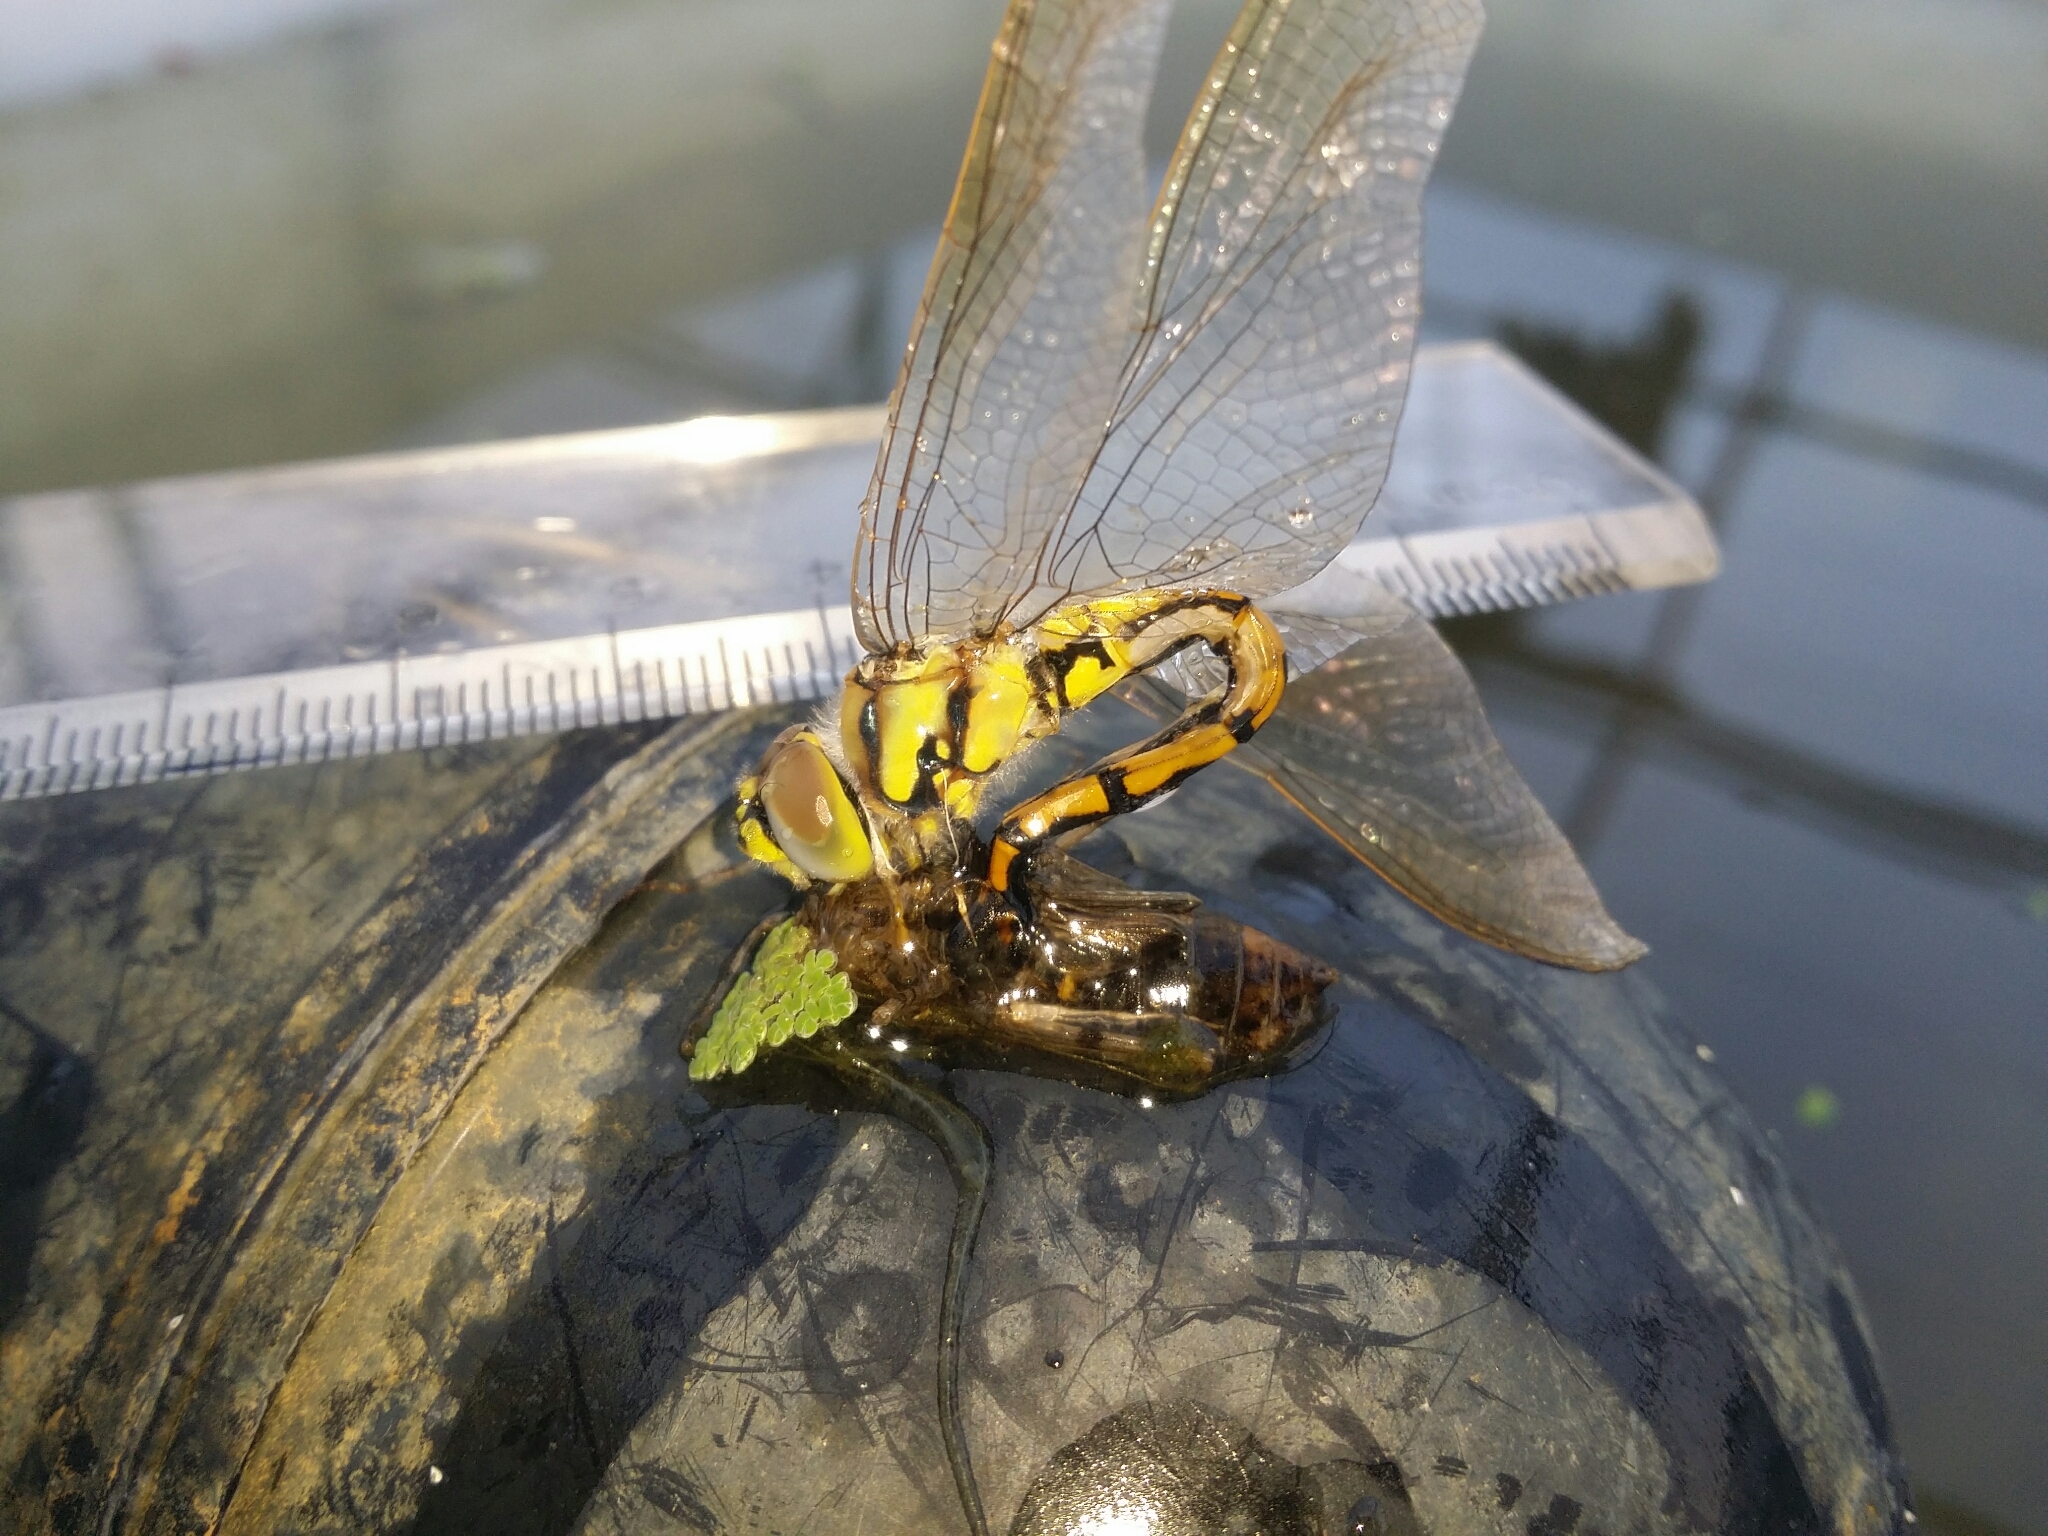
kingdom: Animalia
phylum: Arthropoda
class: Insecta
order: Odonata
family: Corduliidae
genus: Hemicordulia
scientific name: Hemicordulia tau
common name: Tau emerald
